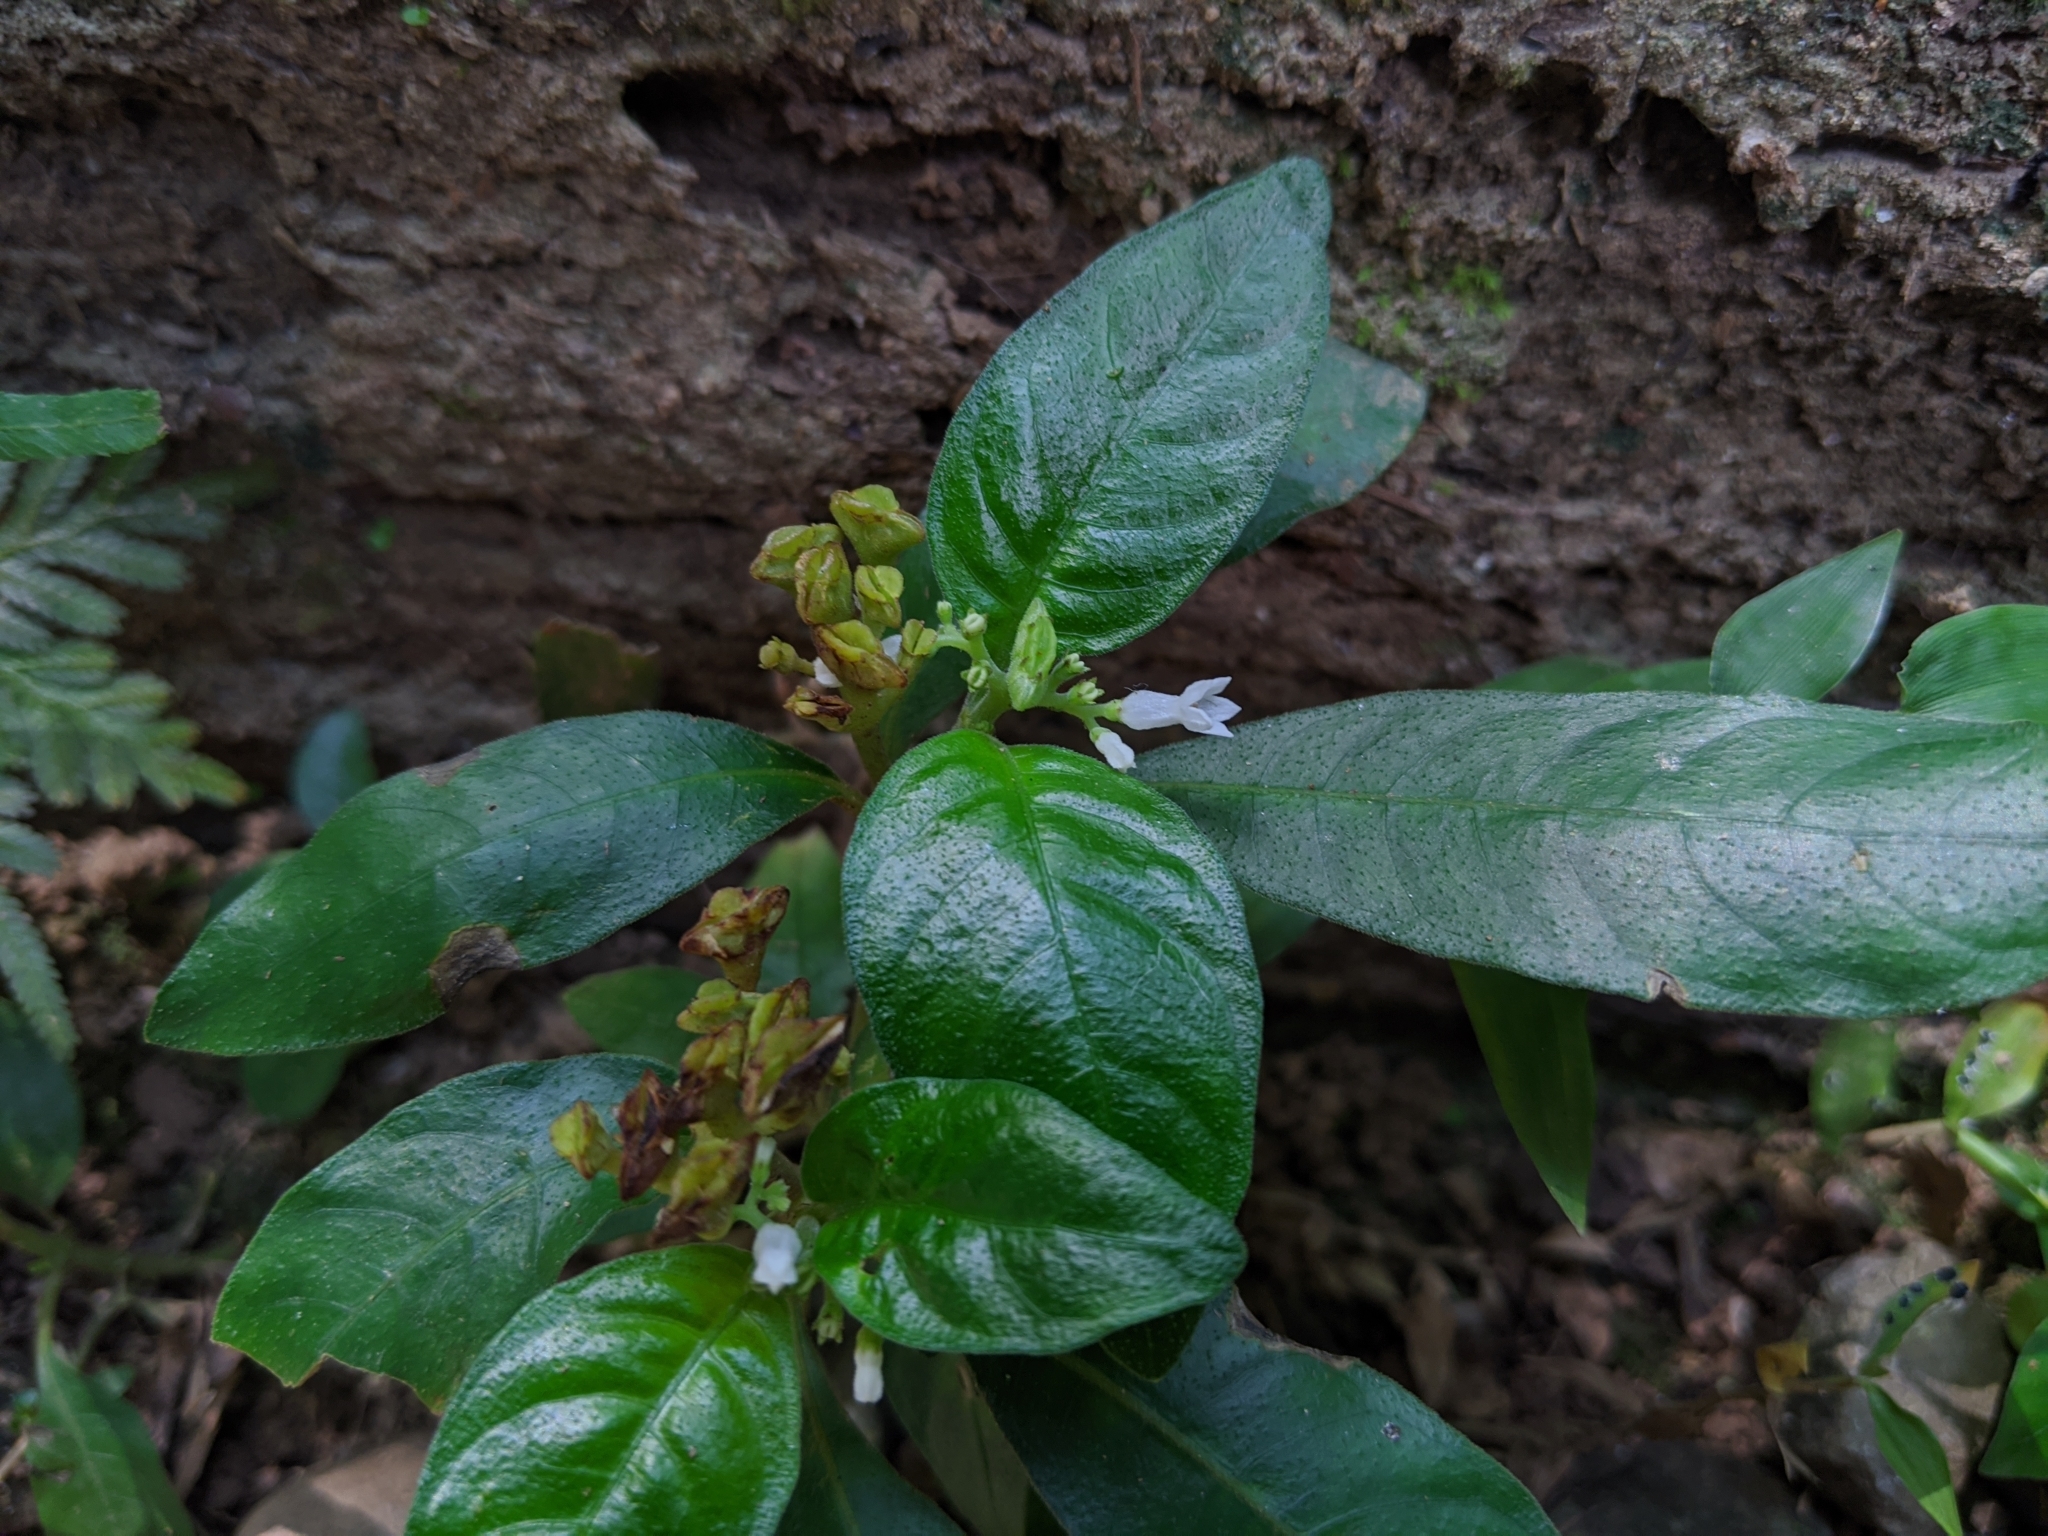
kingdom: Plantae
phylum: Tracheophyta
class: Magnoliopsida
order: Gentianales
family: Rubiaceae
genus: Ophiorrhiza
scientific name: Ophiorrhiza pumila
